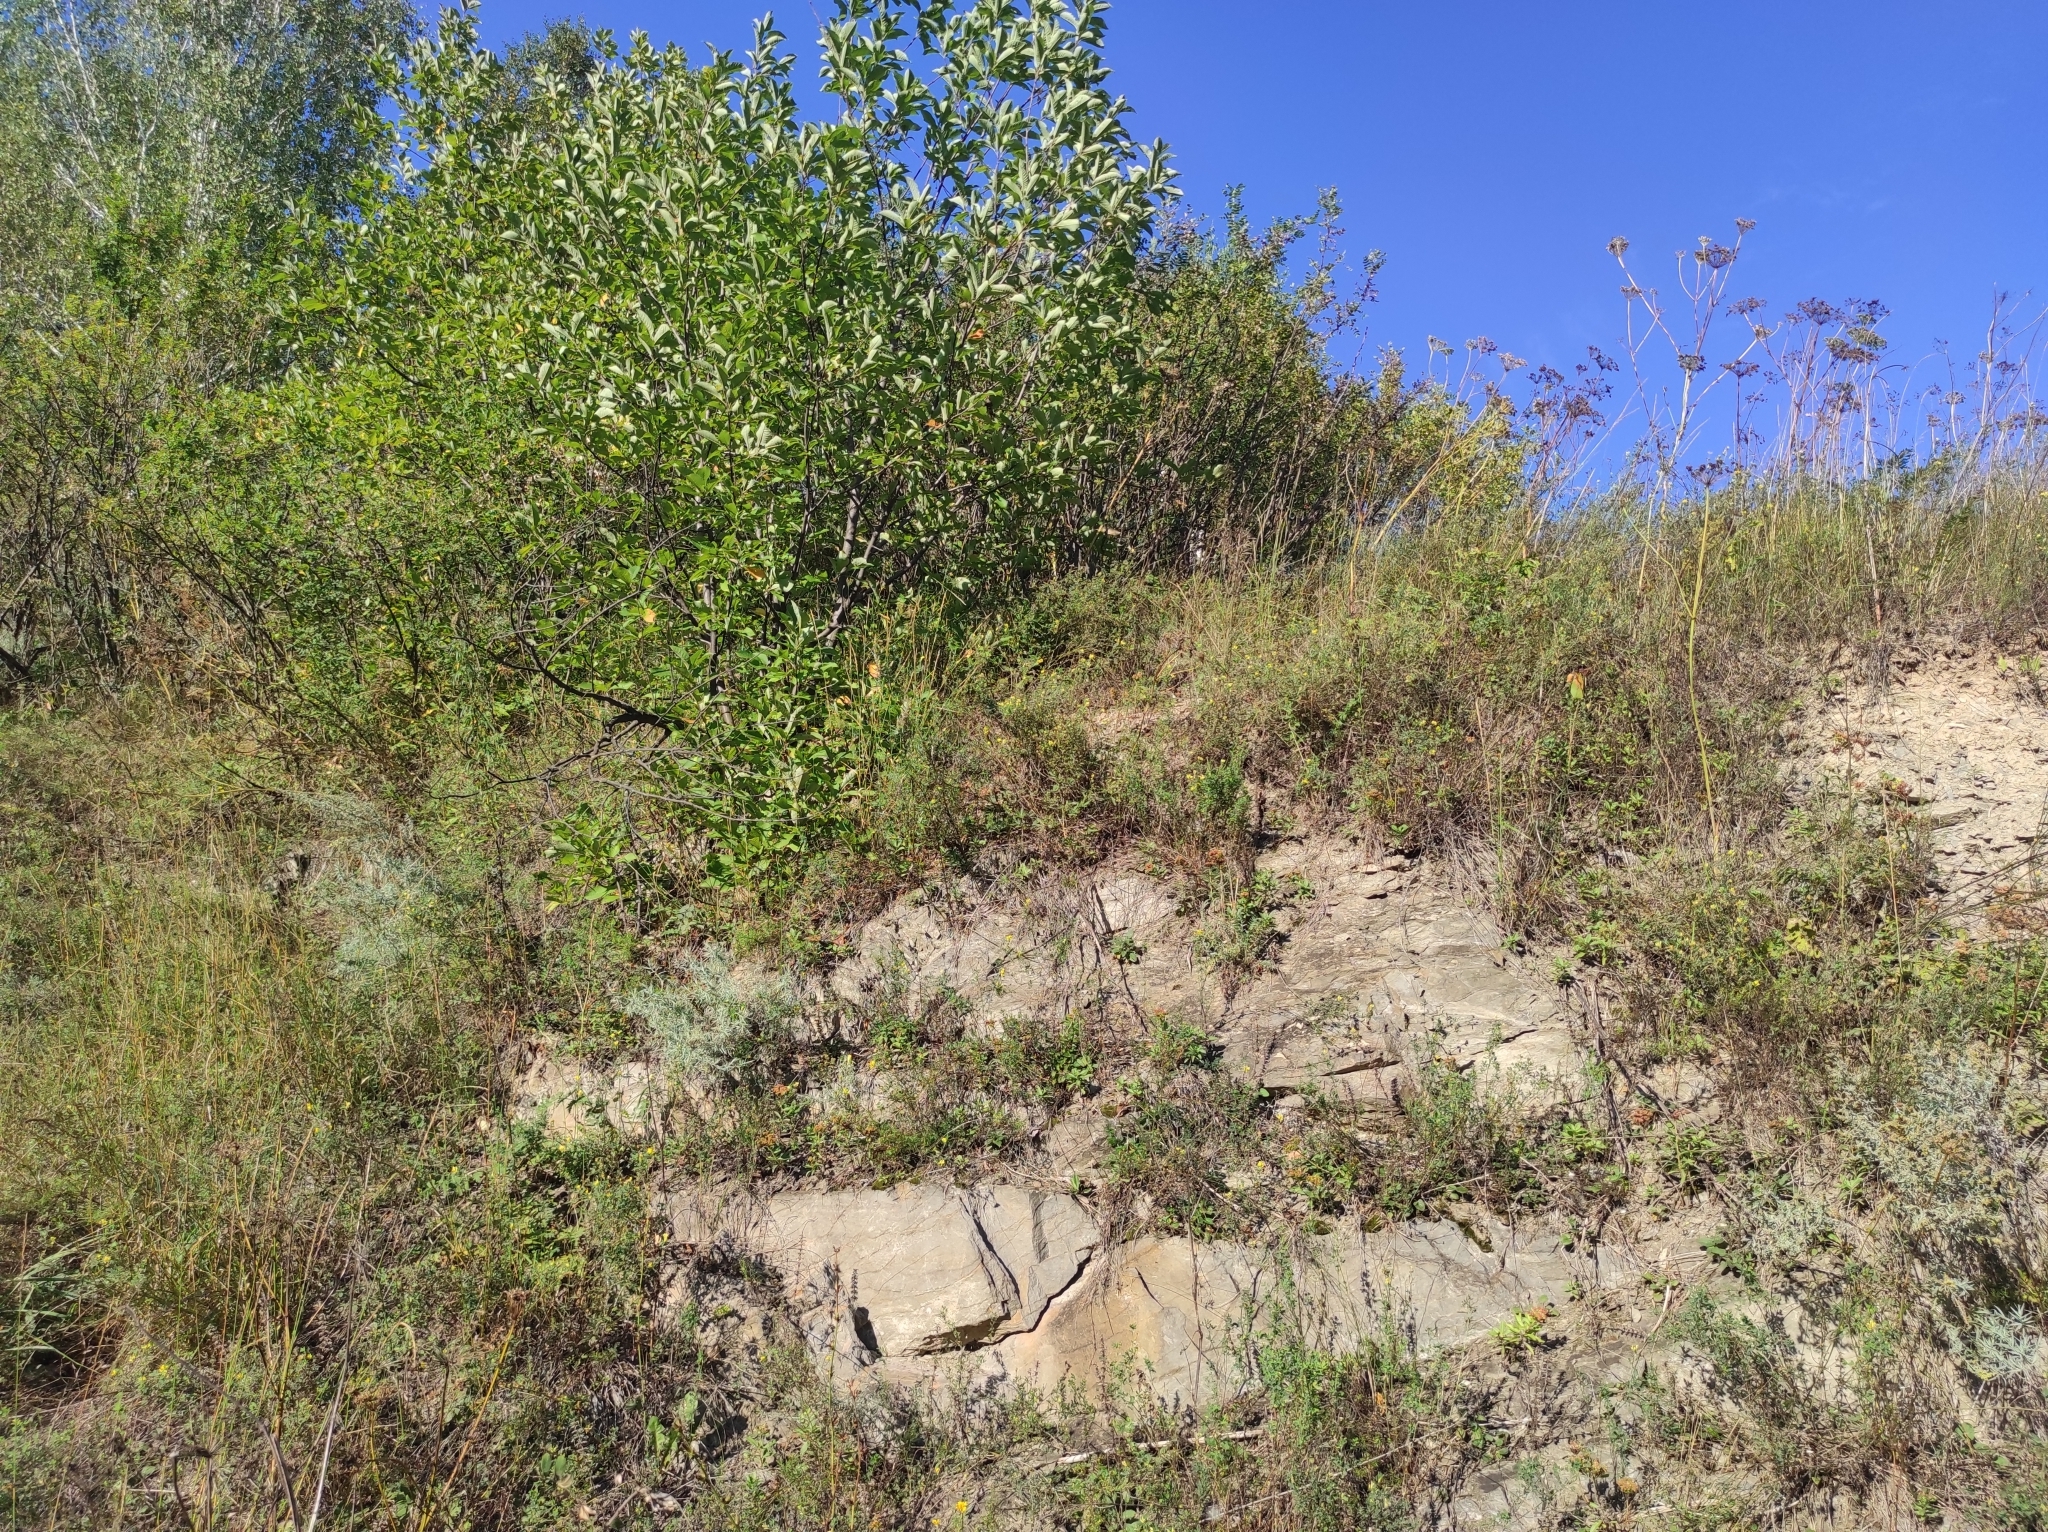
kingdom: Plantae
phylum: Tracheophyta
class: Magnoliopsida
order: Saxifragales
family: Crassulaceae
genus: Phedimus
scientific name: Phedimus aizoon
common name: Orpin aizoon
